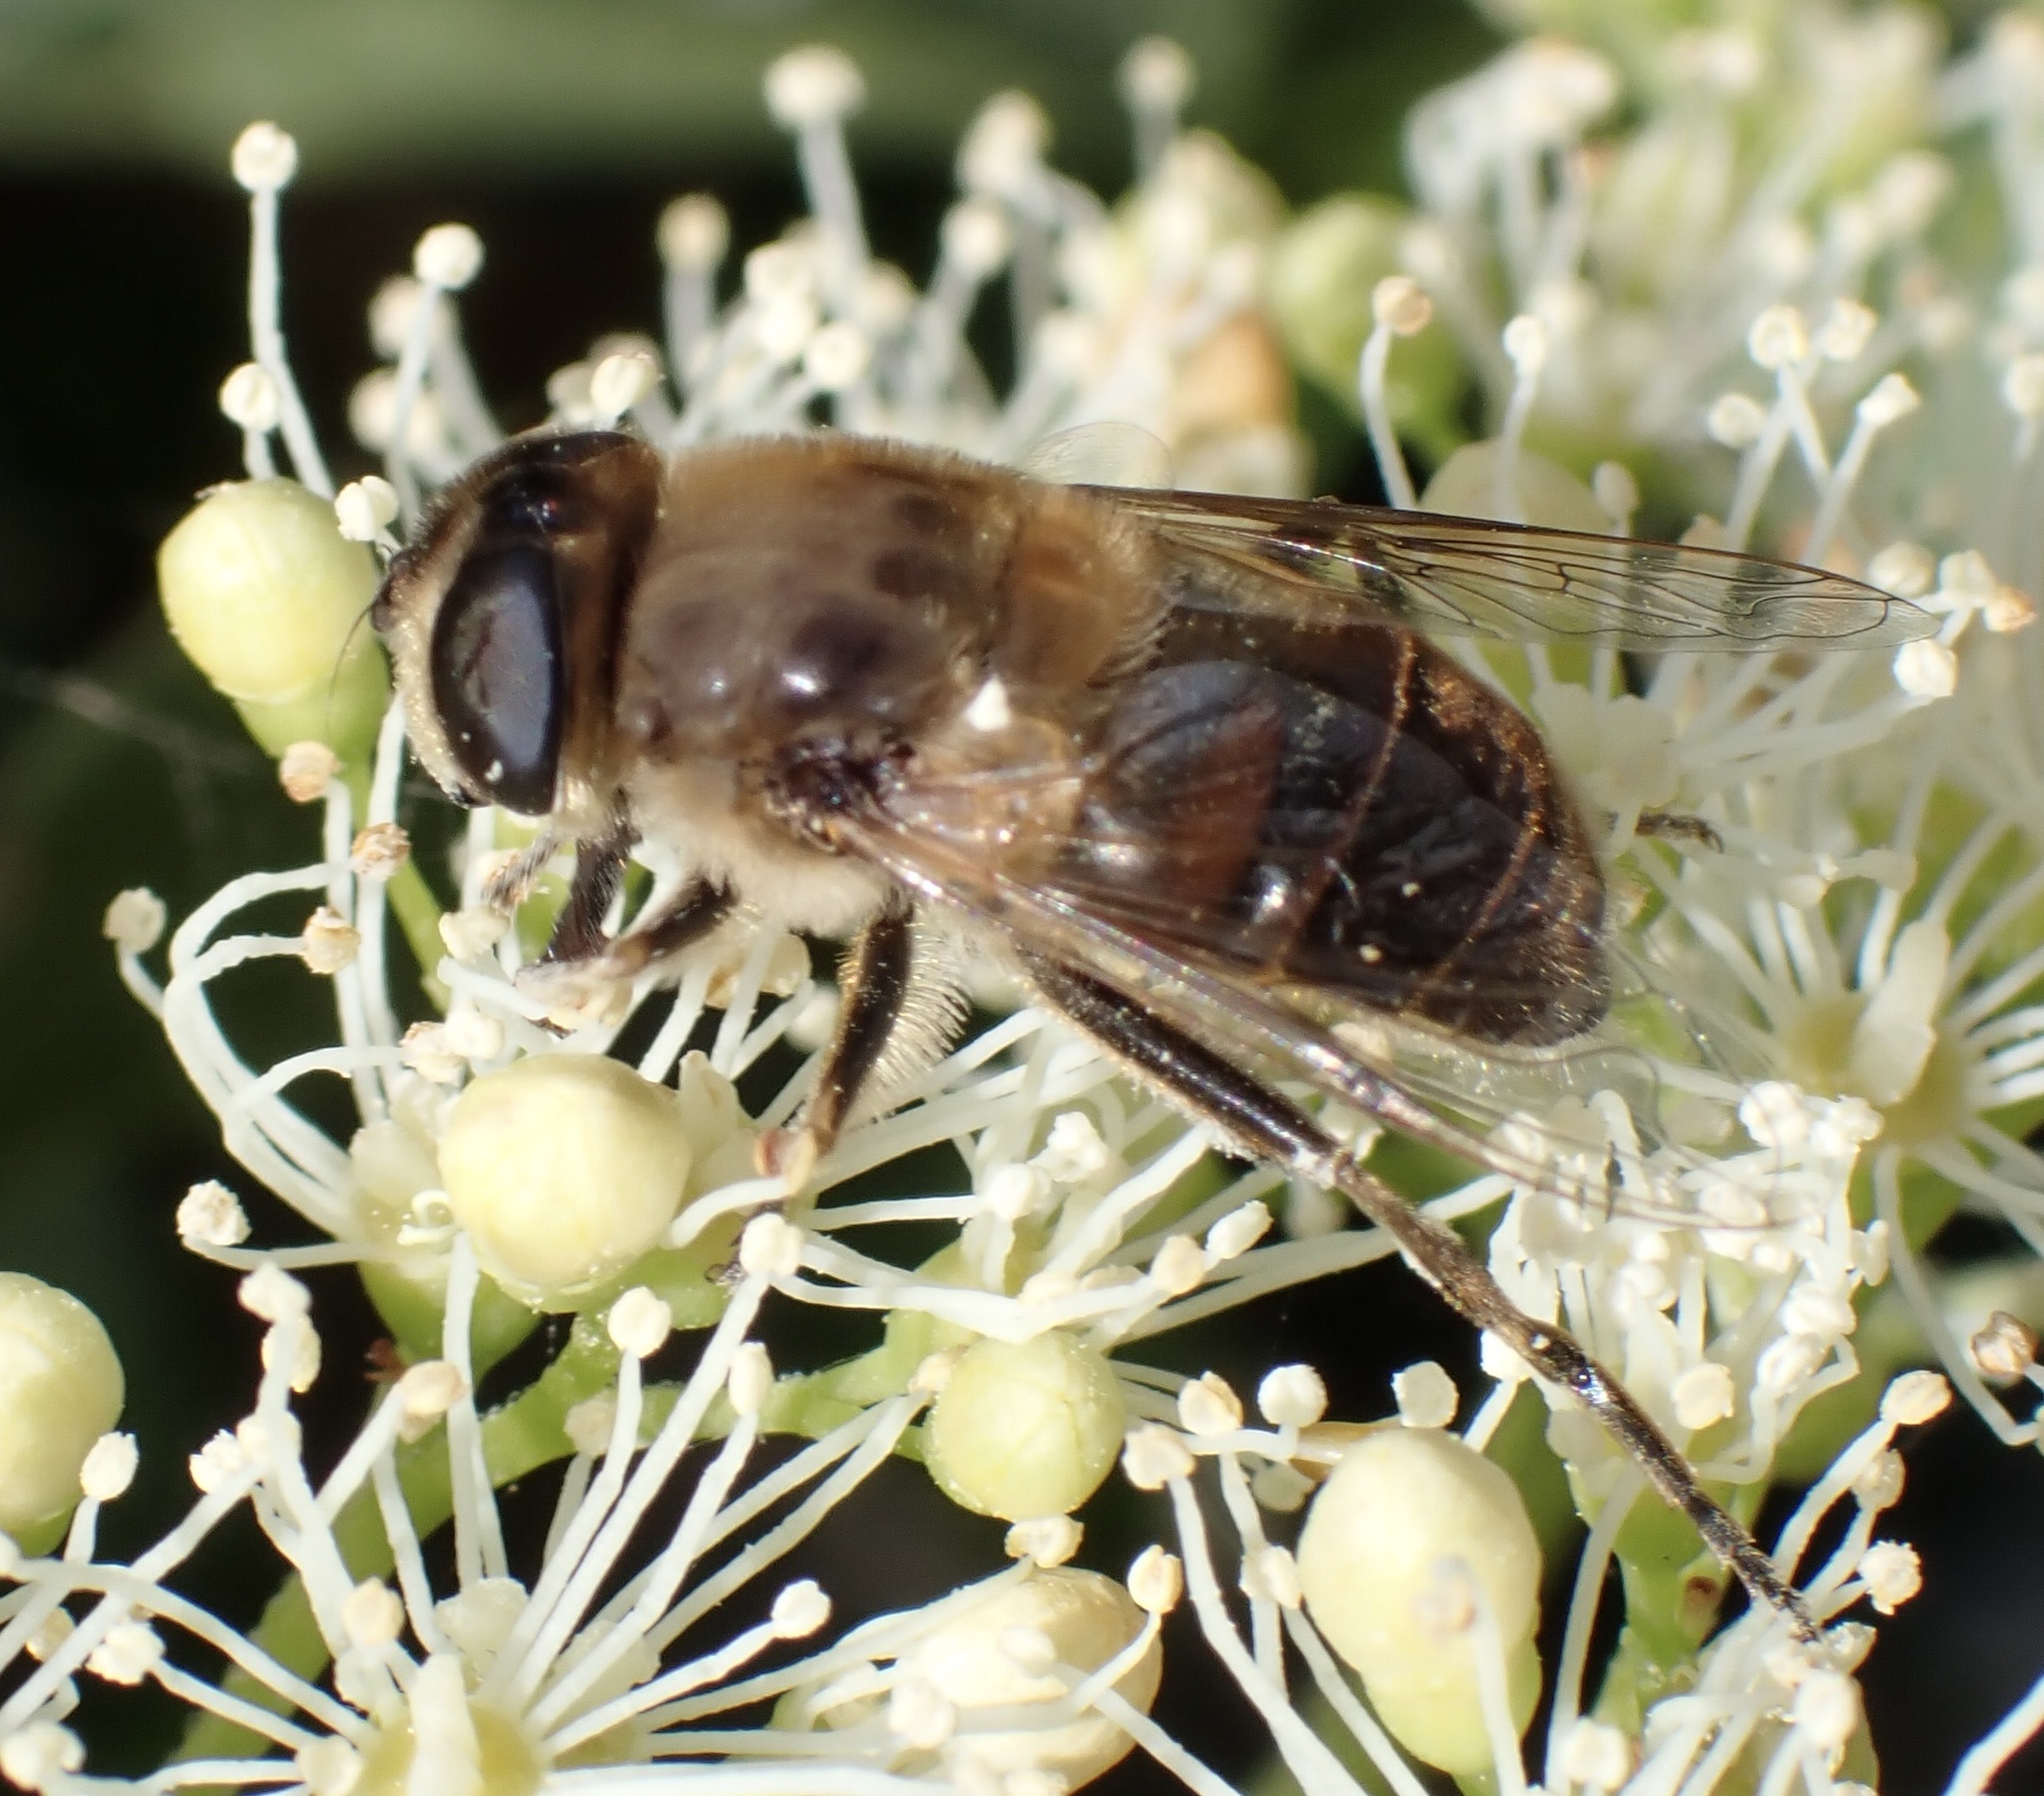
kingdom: Animalia
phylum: Arthropoda
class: Insecta
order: Diptera
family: Syrphidae
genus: Eristalis
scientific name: Eristalis tenax
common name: Drone fly
